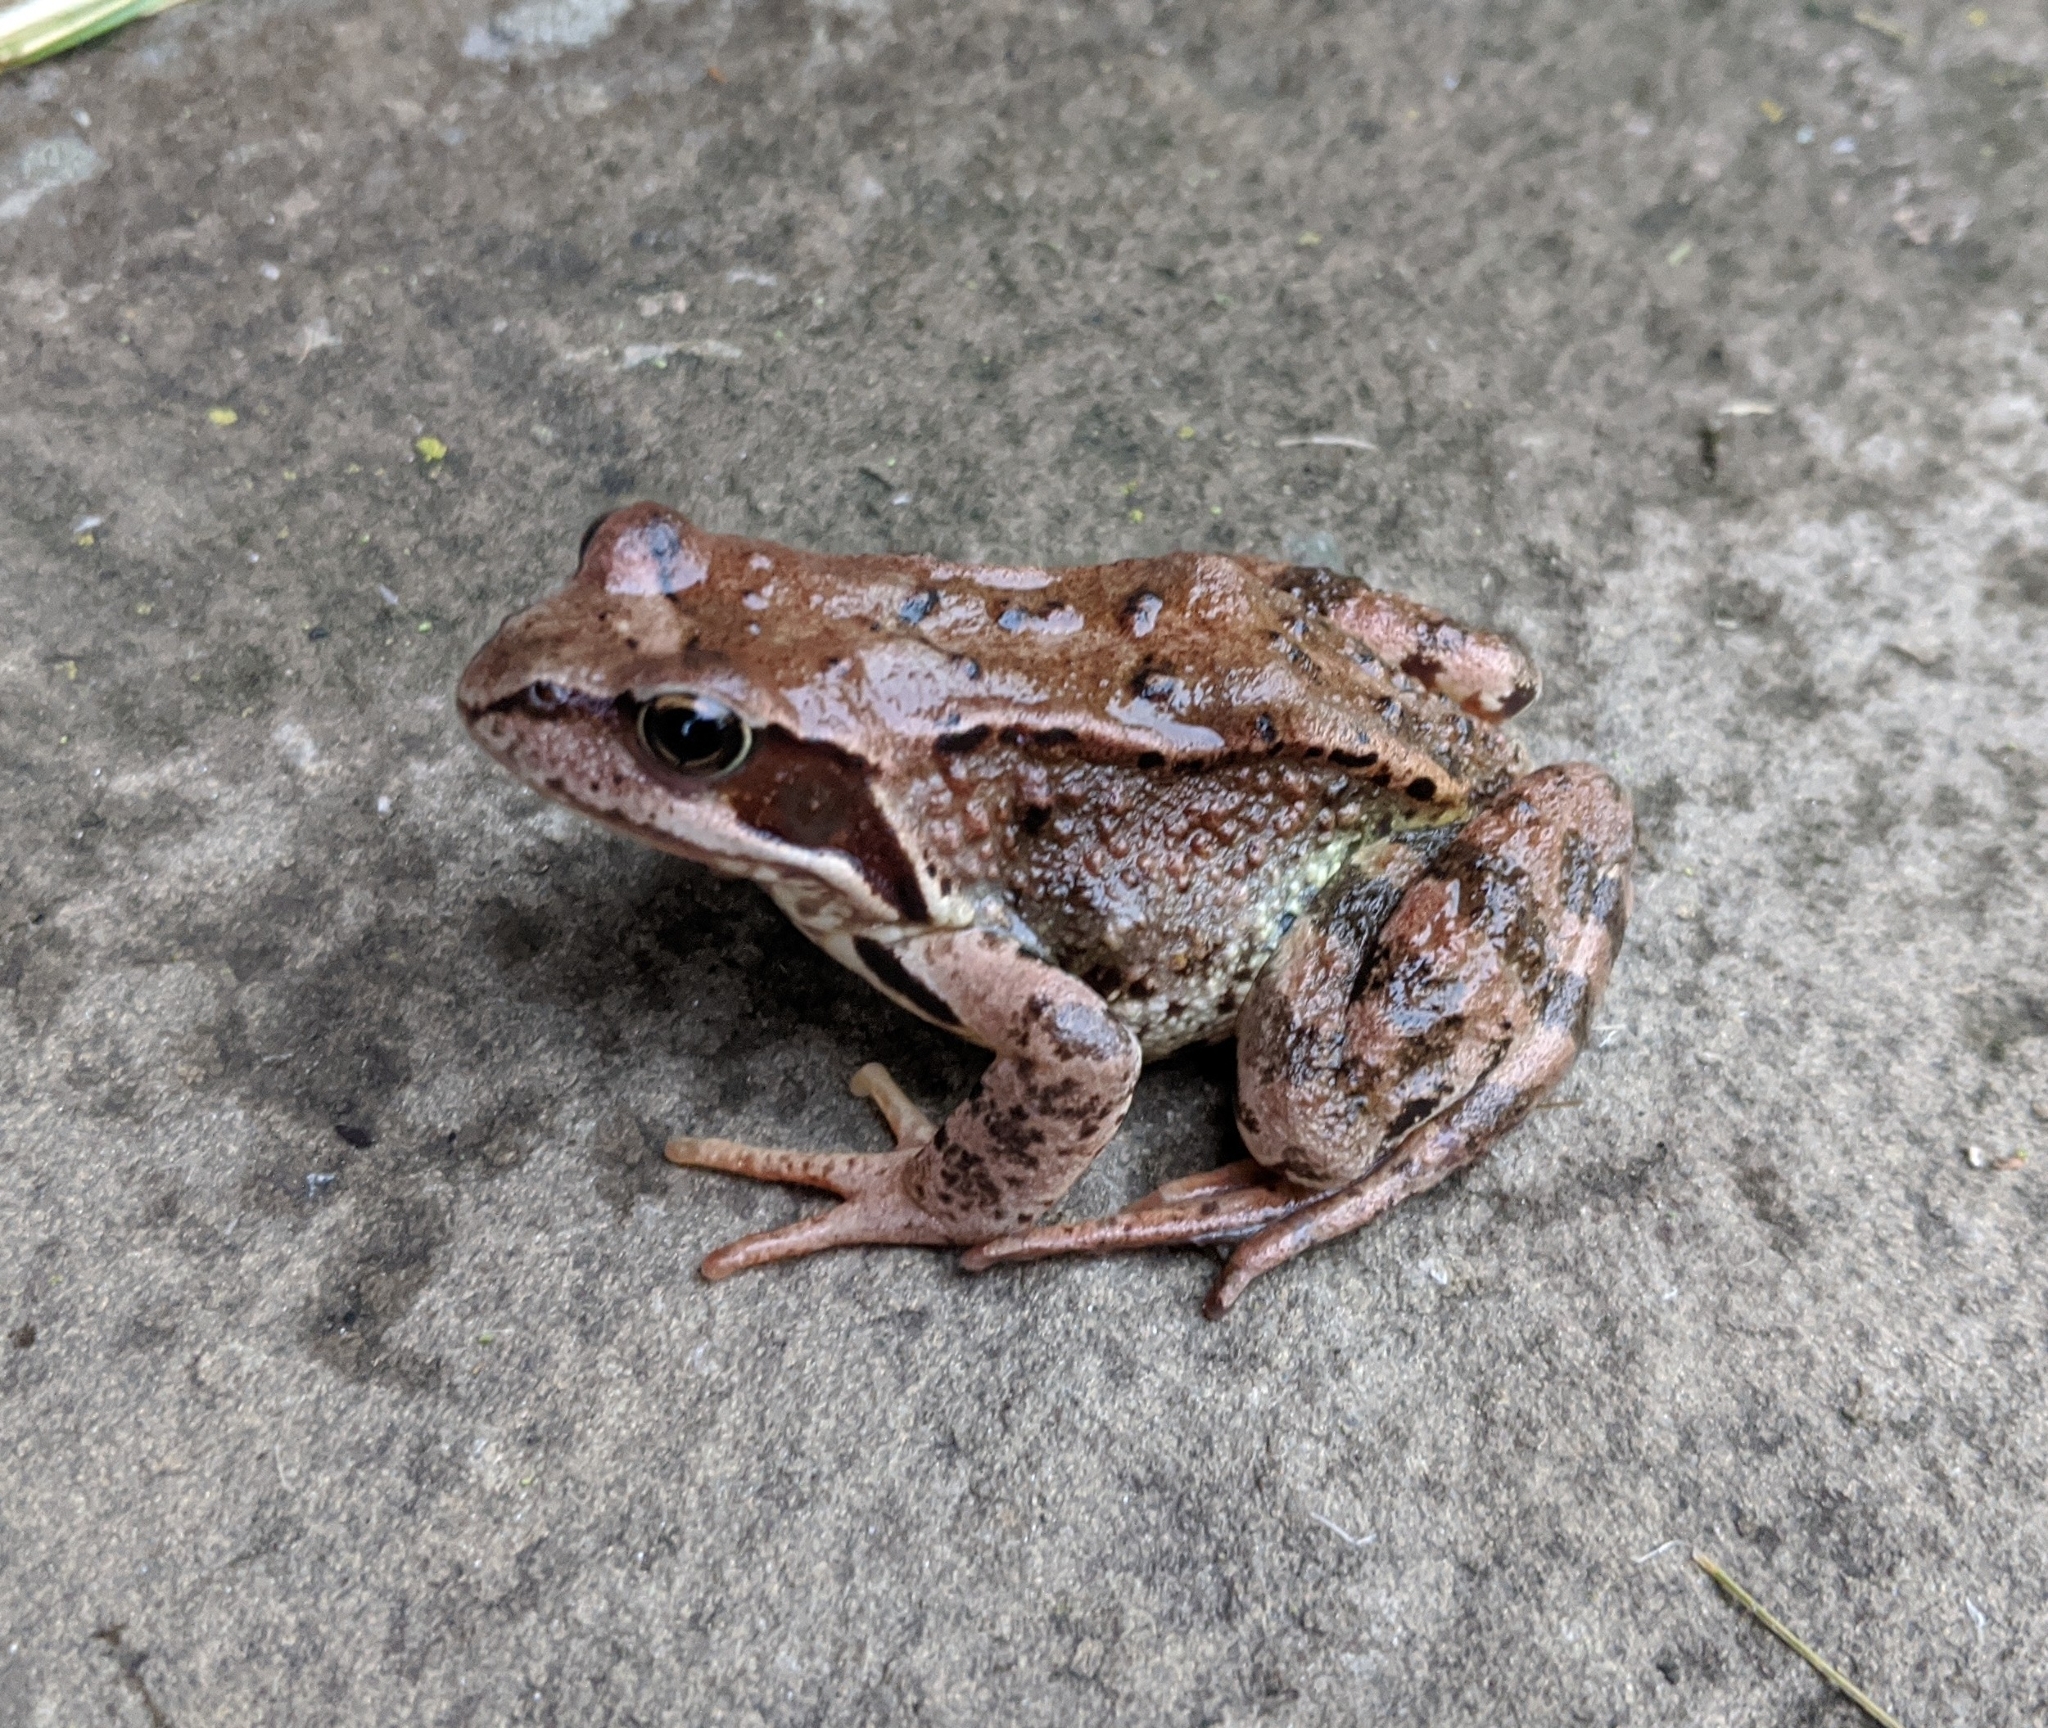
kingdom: Animalia
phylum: Chordata
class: Amphibia
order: Anura
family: Ranidae
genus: Rana
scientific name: Rana temporaria
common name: Common frog
